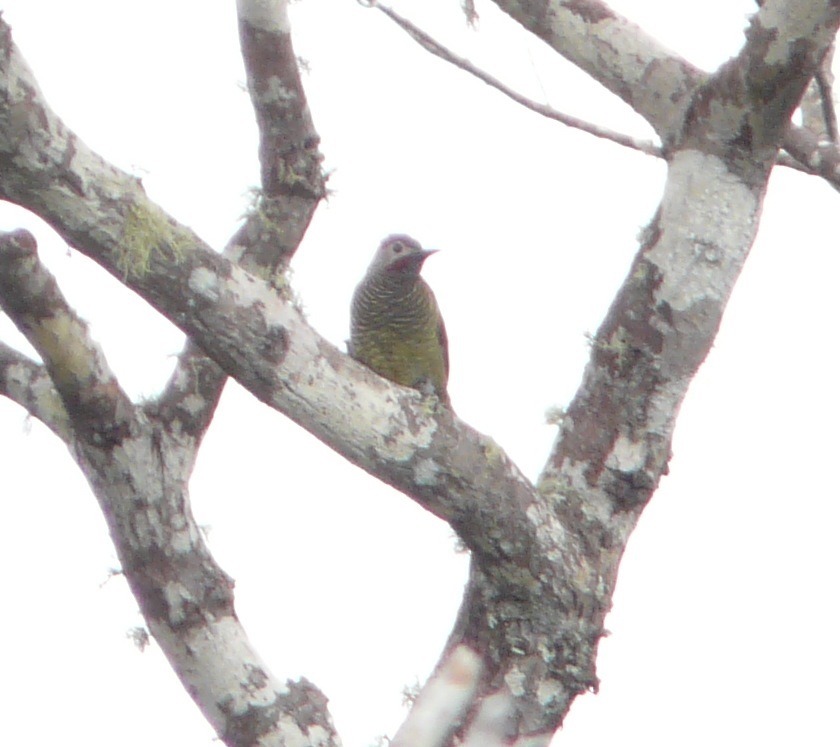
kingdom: Animalia
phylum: Chordata
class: Aves
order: Piciformes
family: Picidae
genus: Colaptes
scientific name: Colaptes rubiginosus
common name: Golden-olive woodpecker
